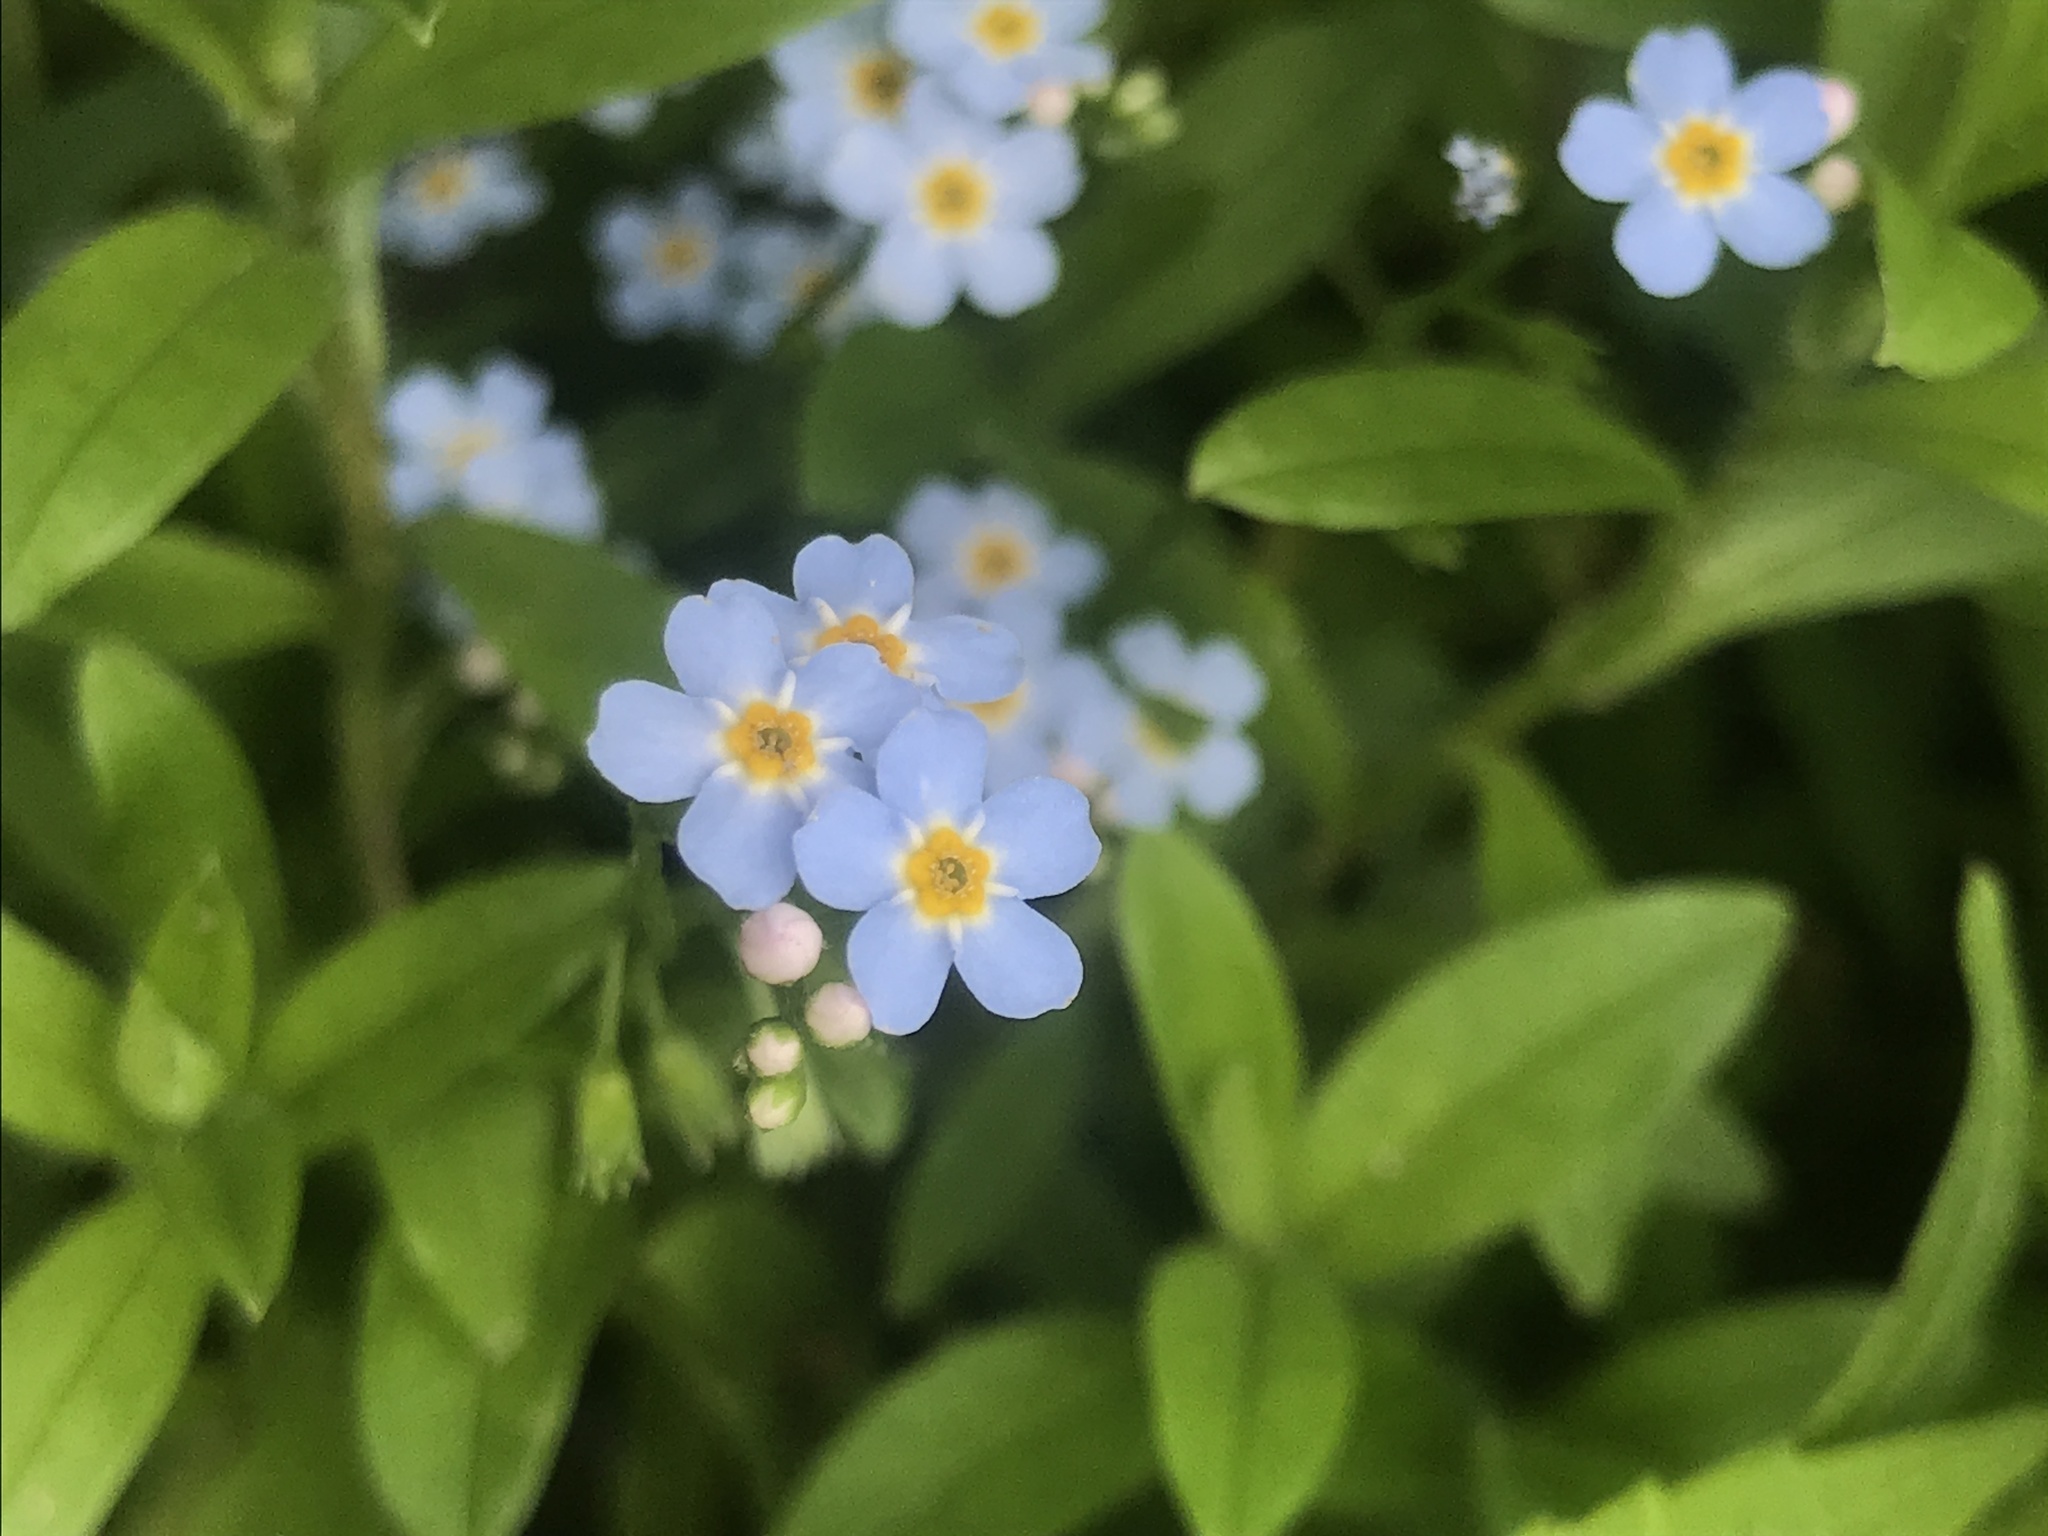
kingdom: Plantae
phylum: Tracheophyta
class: Magnoliopsida
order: Boraginales
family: Boraginaceae
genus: Myosotis
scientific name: Myosotis scorpioides
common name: Water forget-me-not
